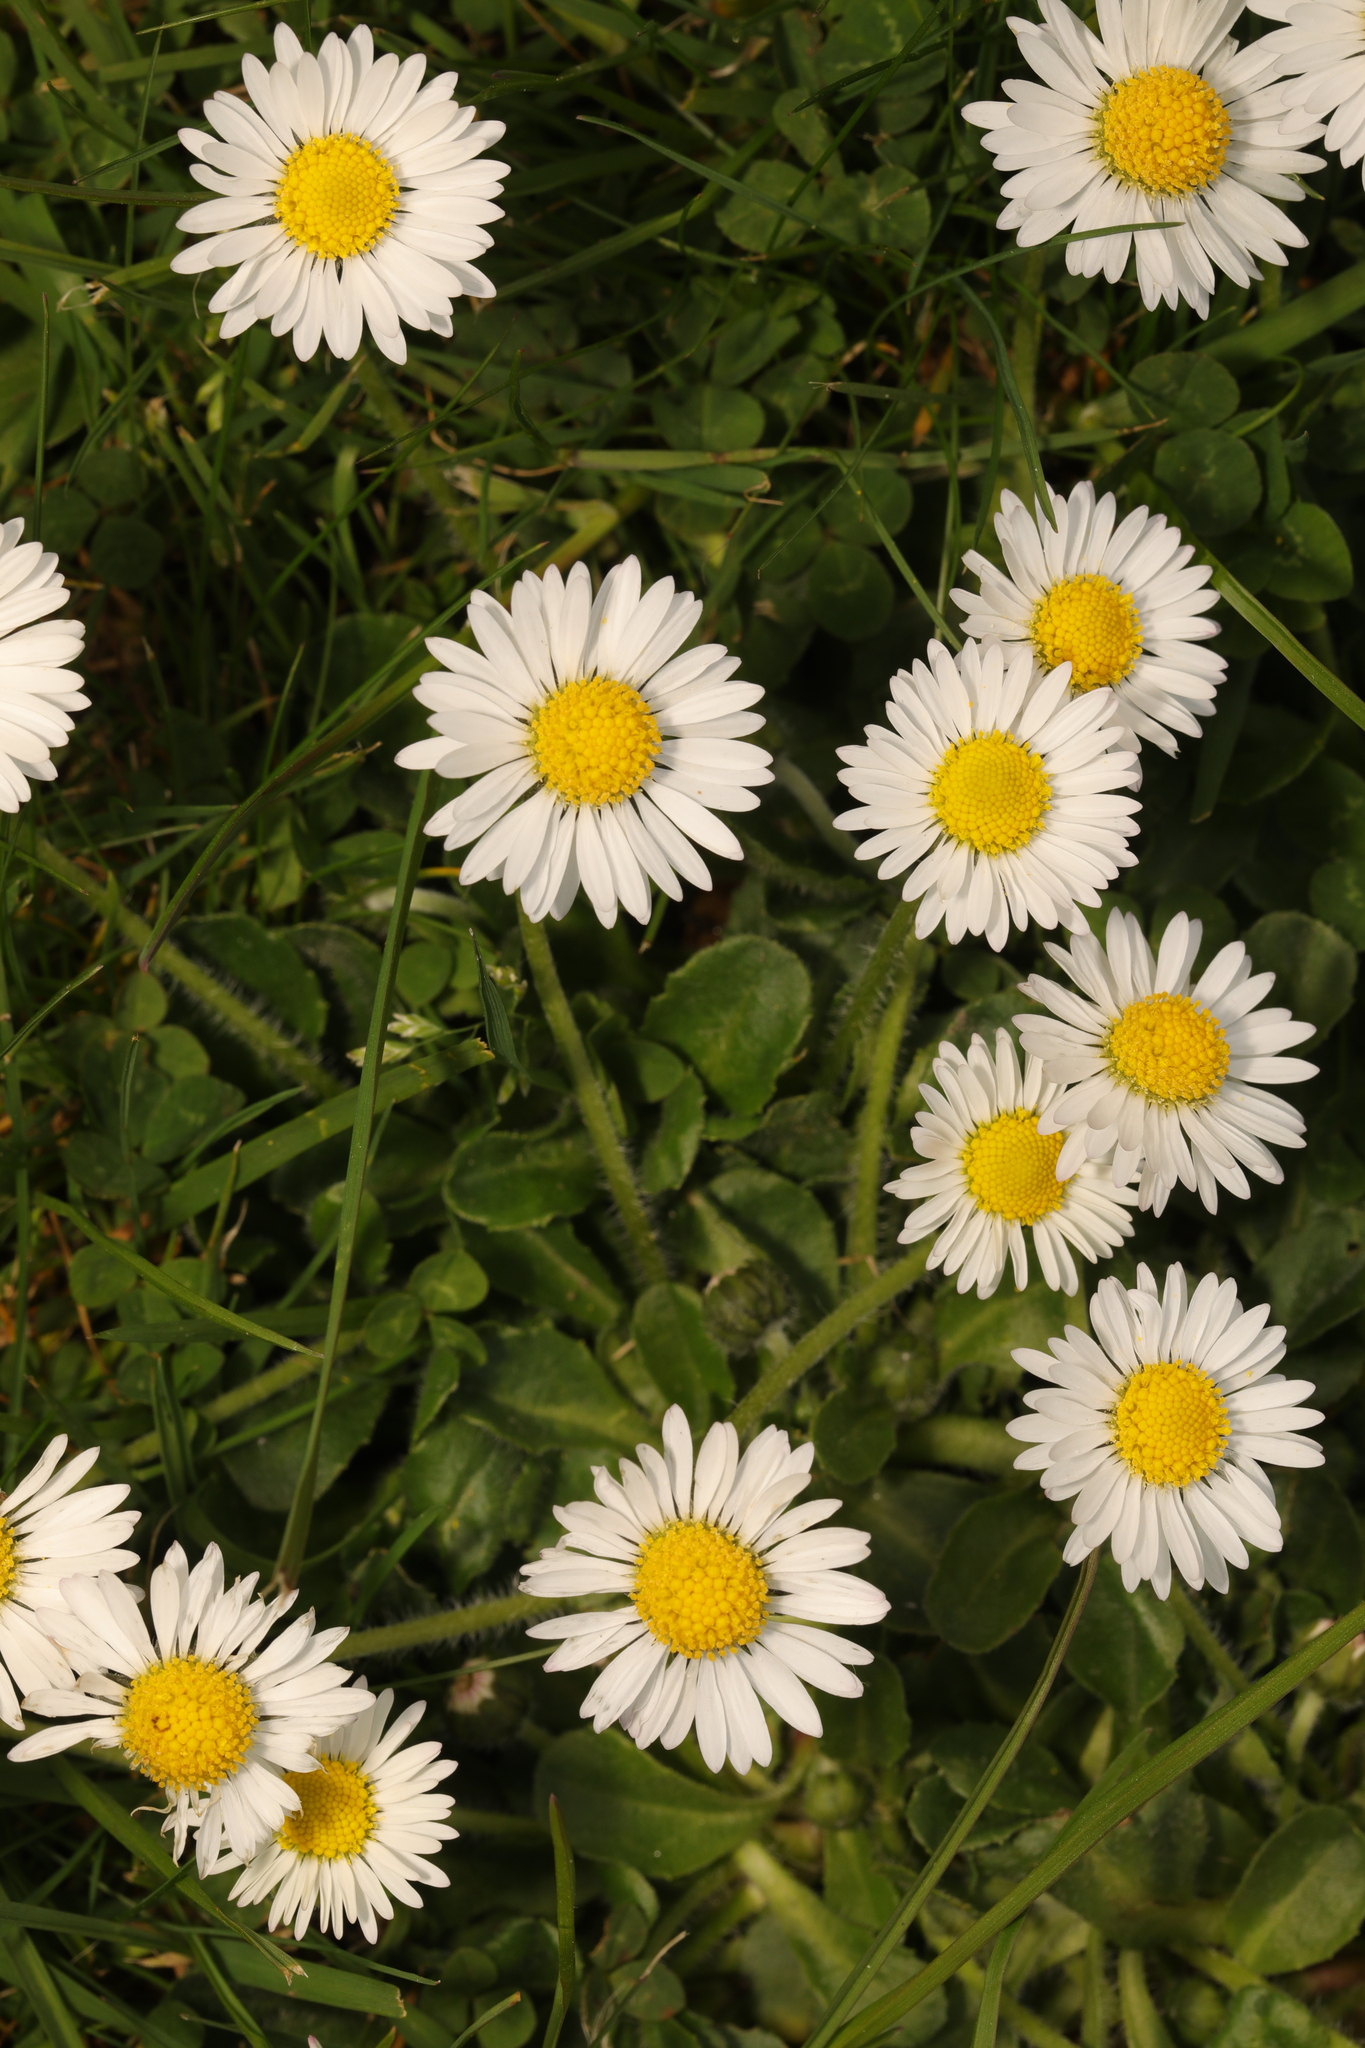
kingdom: Plantae
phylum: Tracheophyta
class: Magnoliopsida
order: Asterales
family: Asteraceae
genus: Bellis
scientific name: Bellis perennis
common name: Lawndaisy
